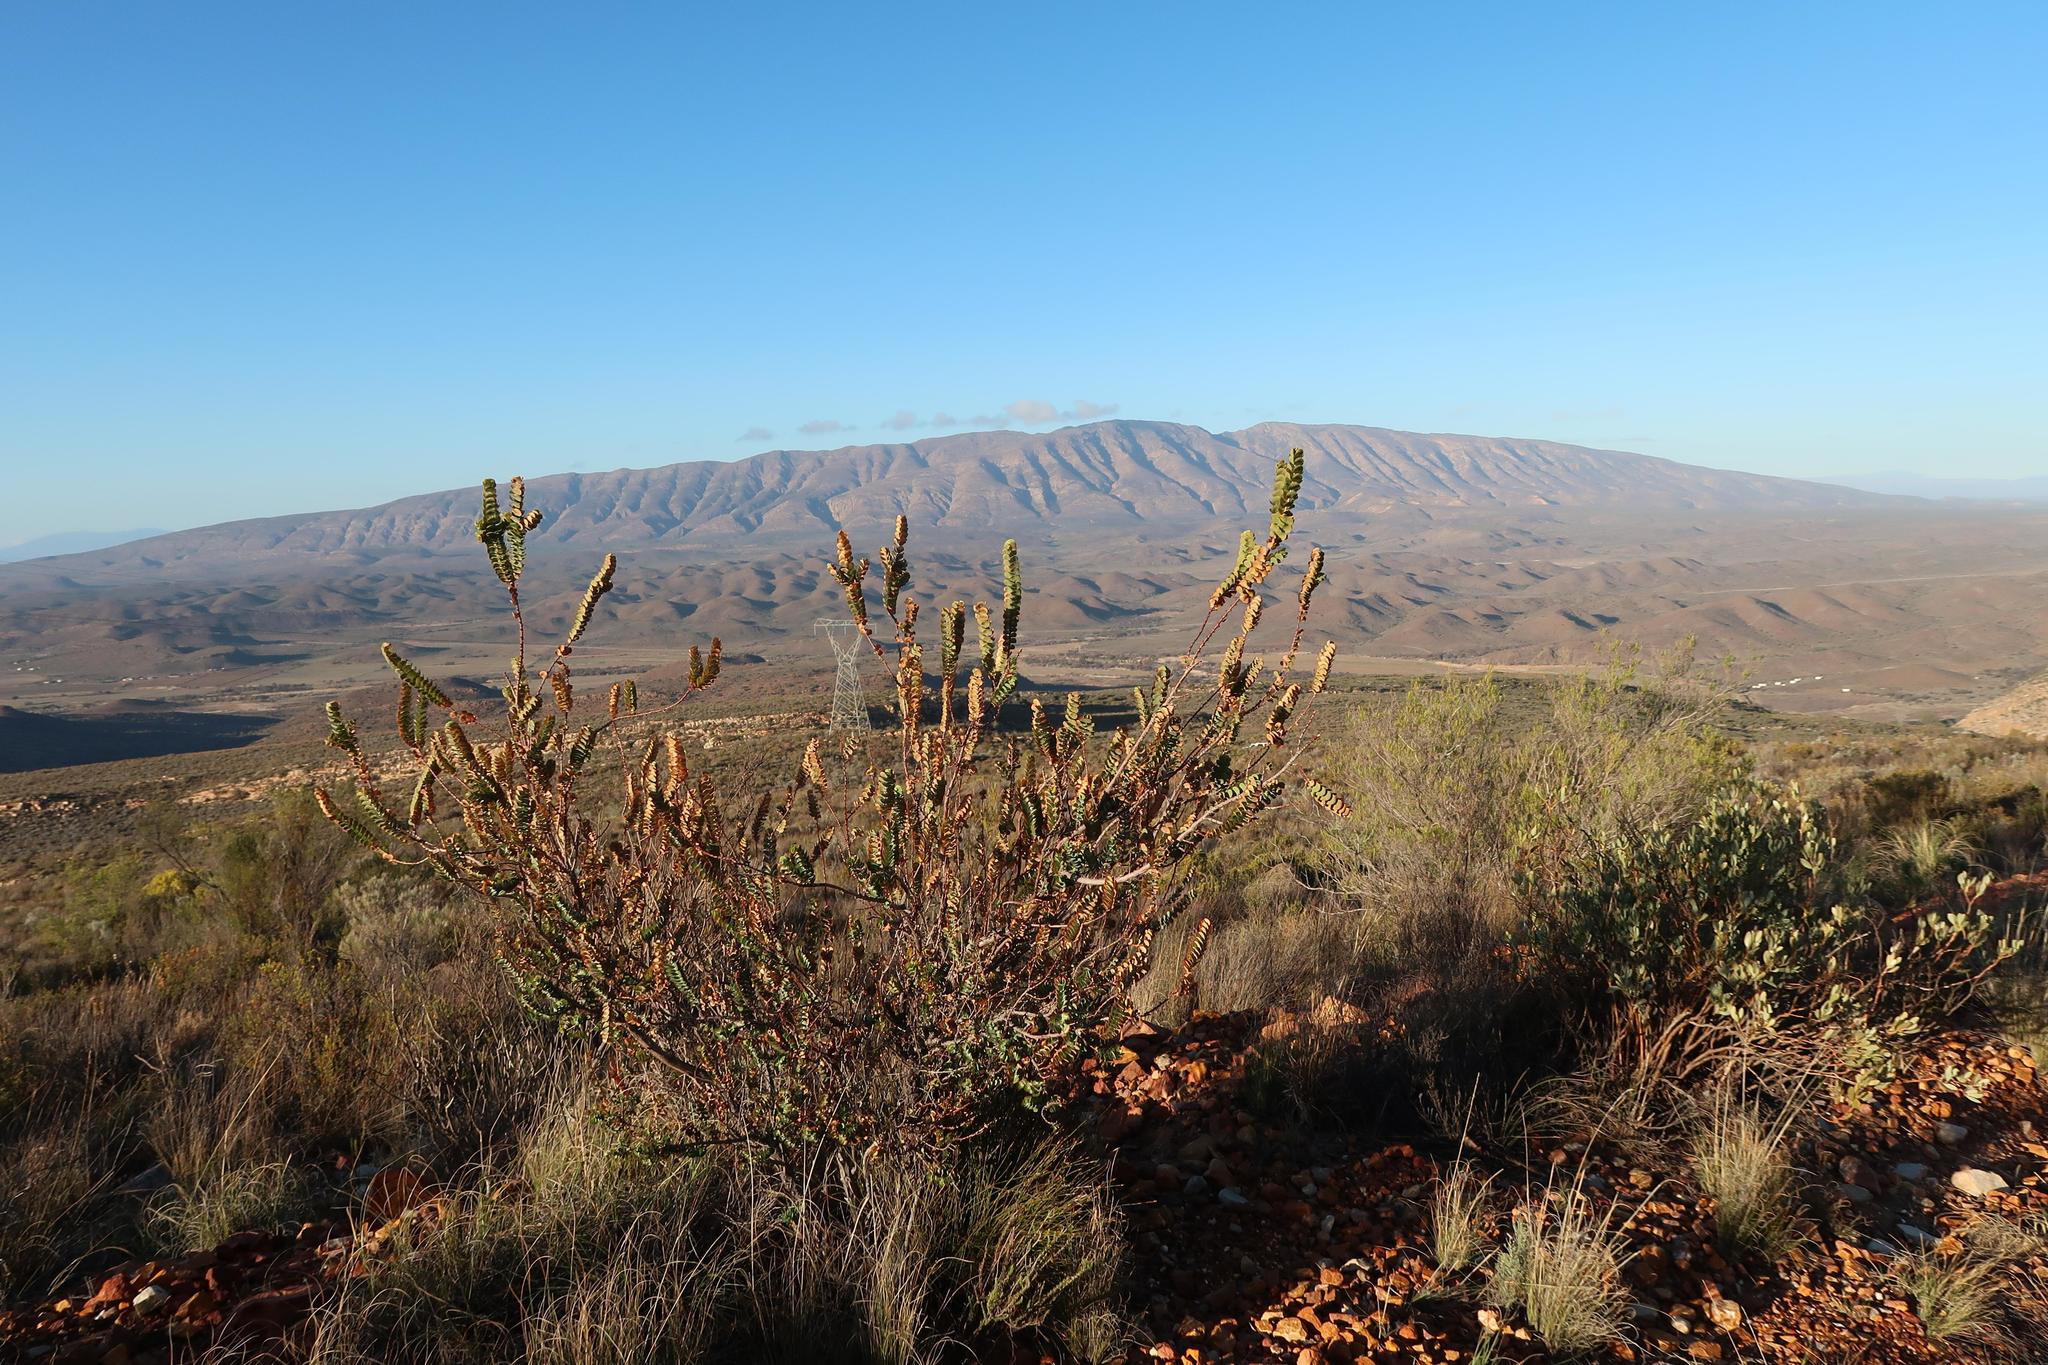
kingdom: Plantae
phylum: Tracheophyta
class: Magnoliopsida
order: Rosales
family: Rosaceae
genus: Cliffortia
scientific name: Cliffortia crenata
